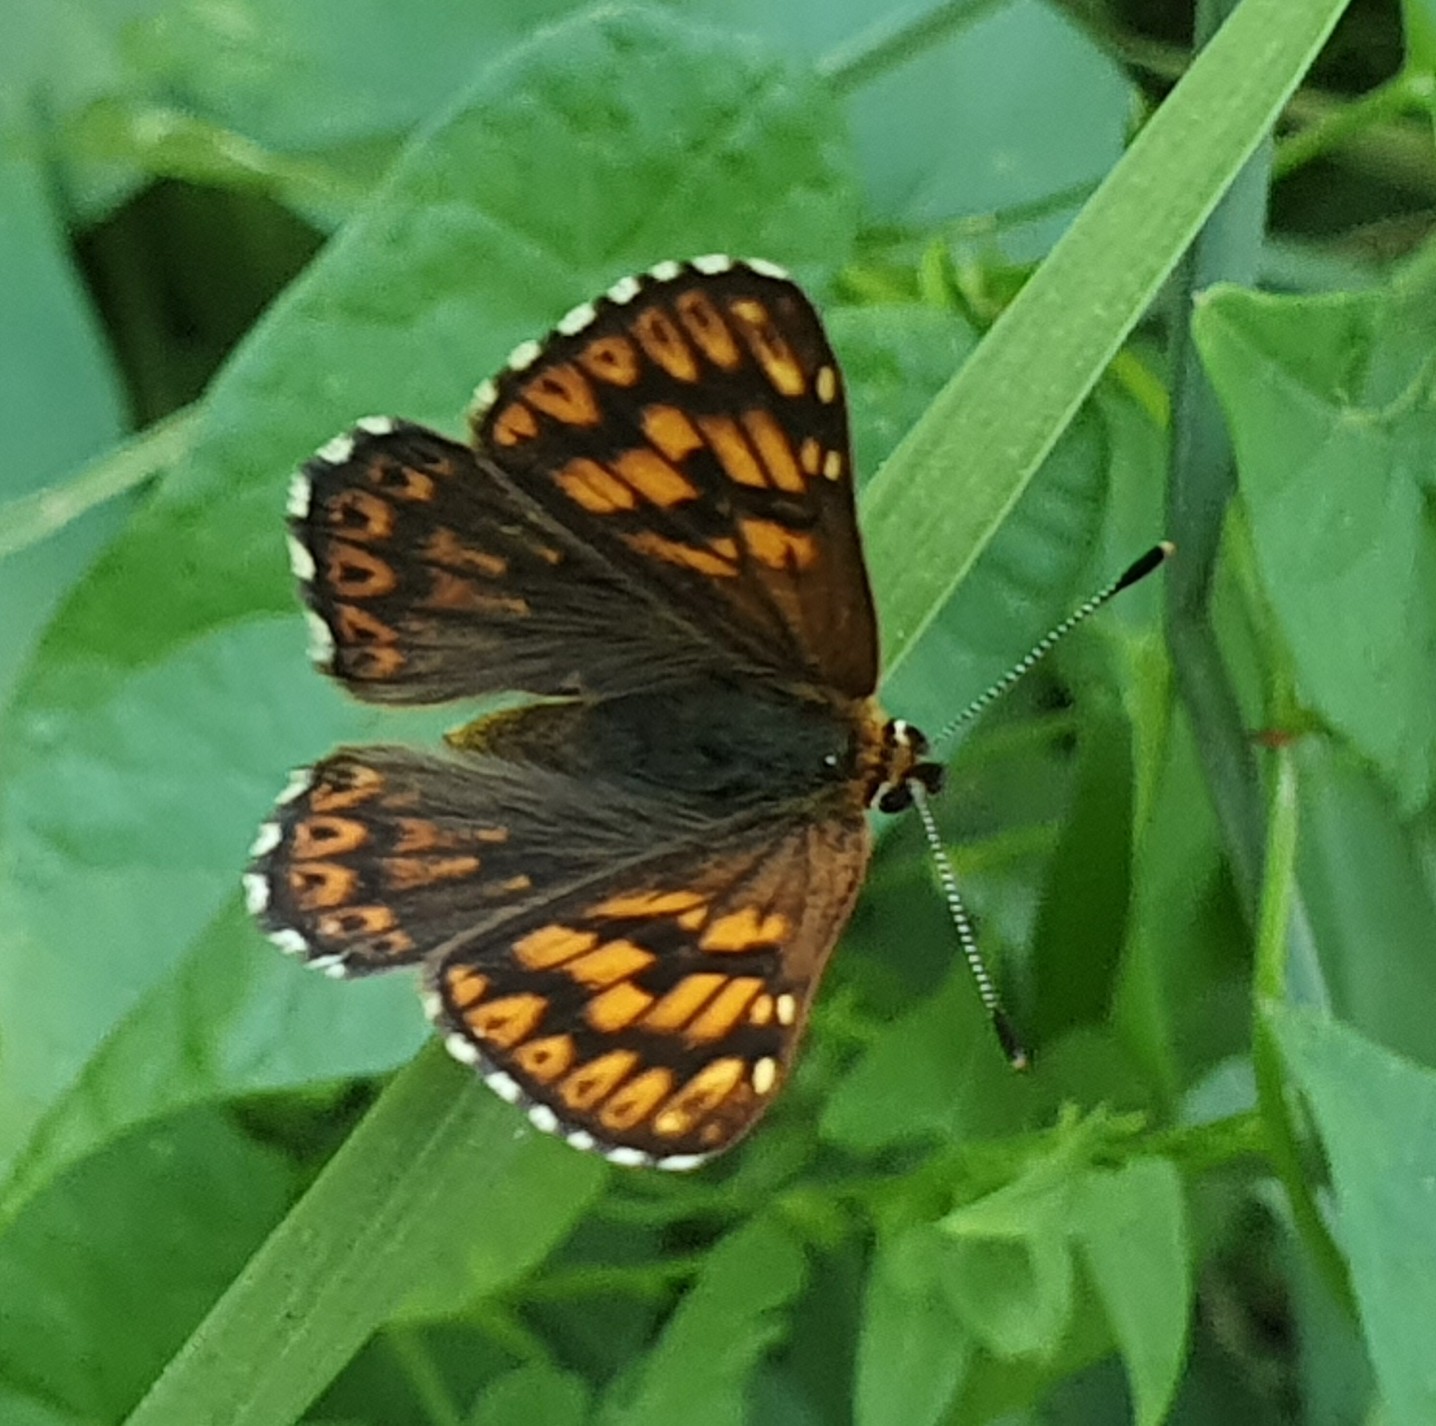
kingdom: Animalia
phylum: Arthropoda
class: Insecta
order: Lepidoptera
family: Riodinidae
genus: Hamearis
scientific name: Hamearis lucina
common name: Duke of burgundy fritillary
